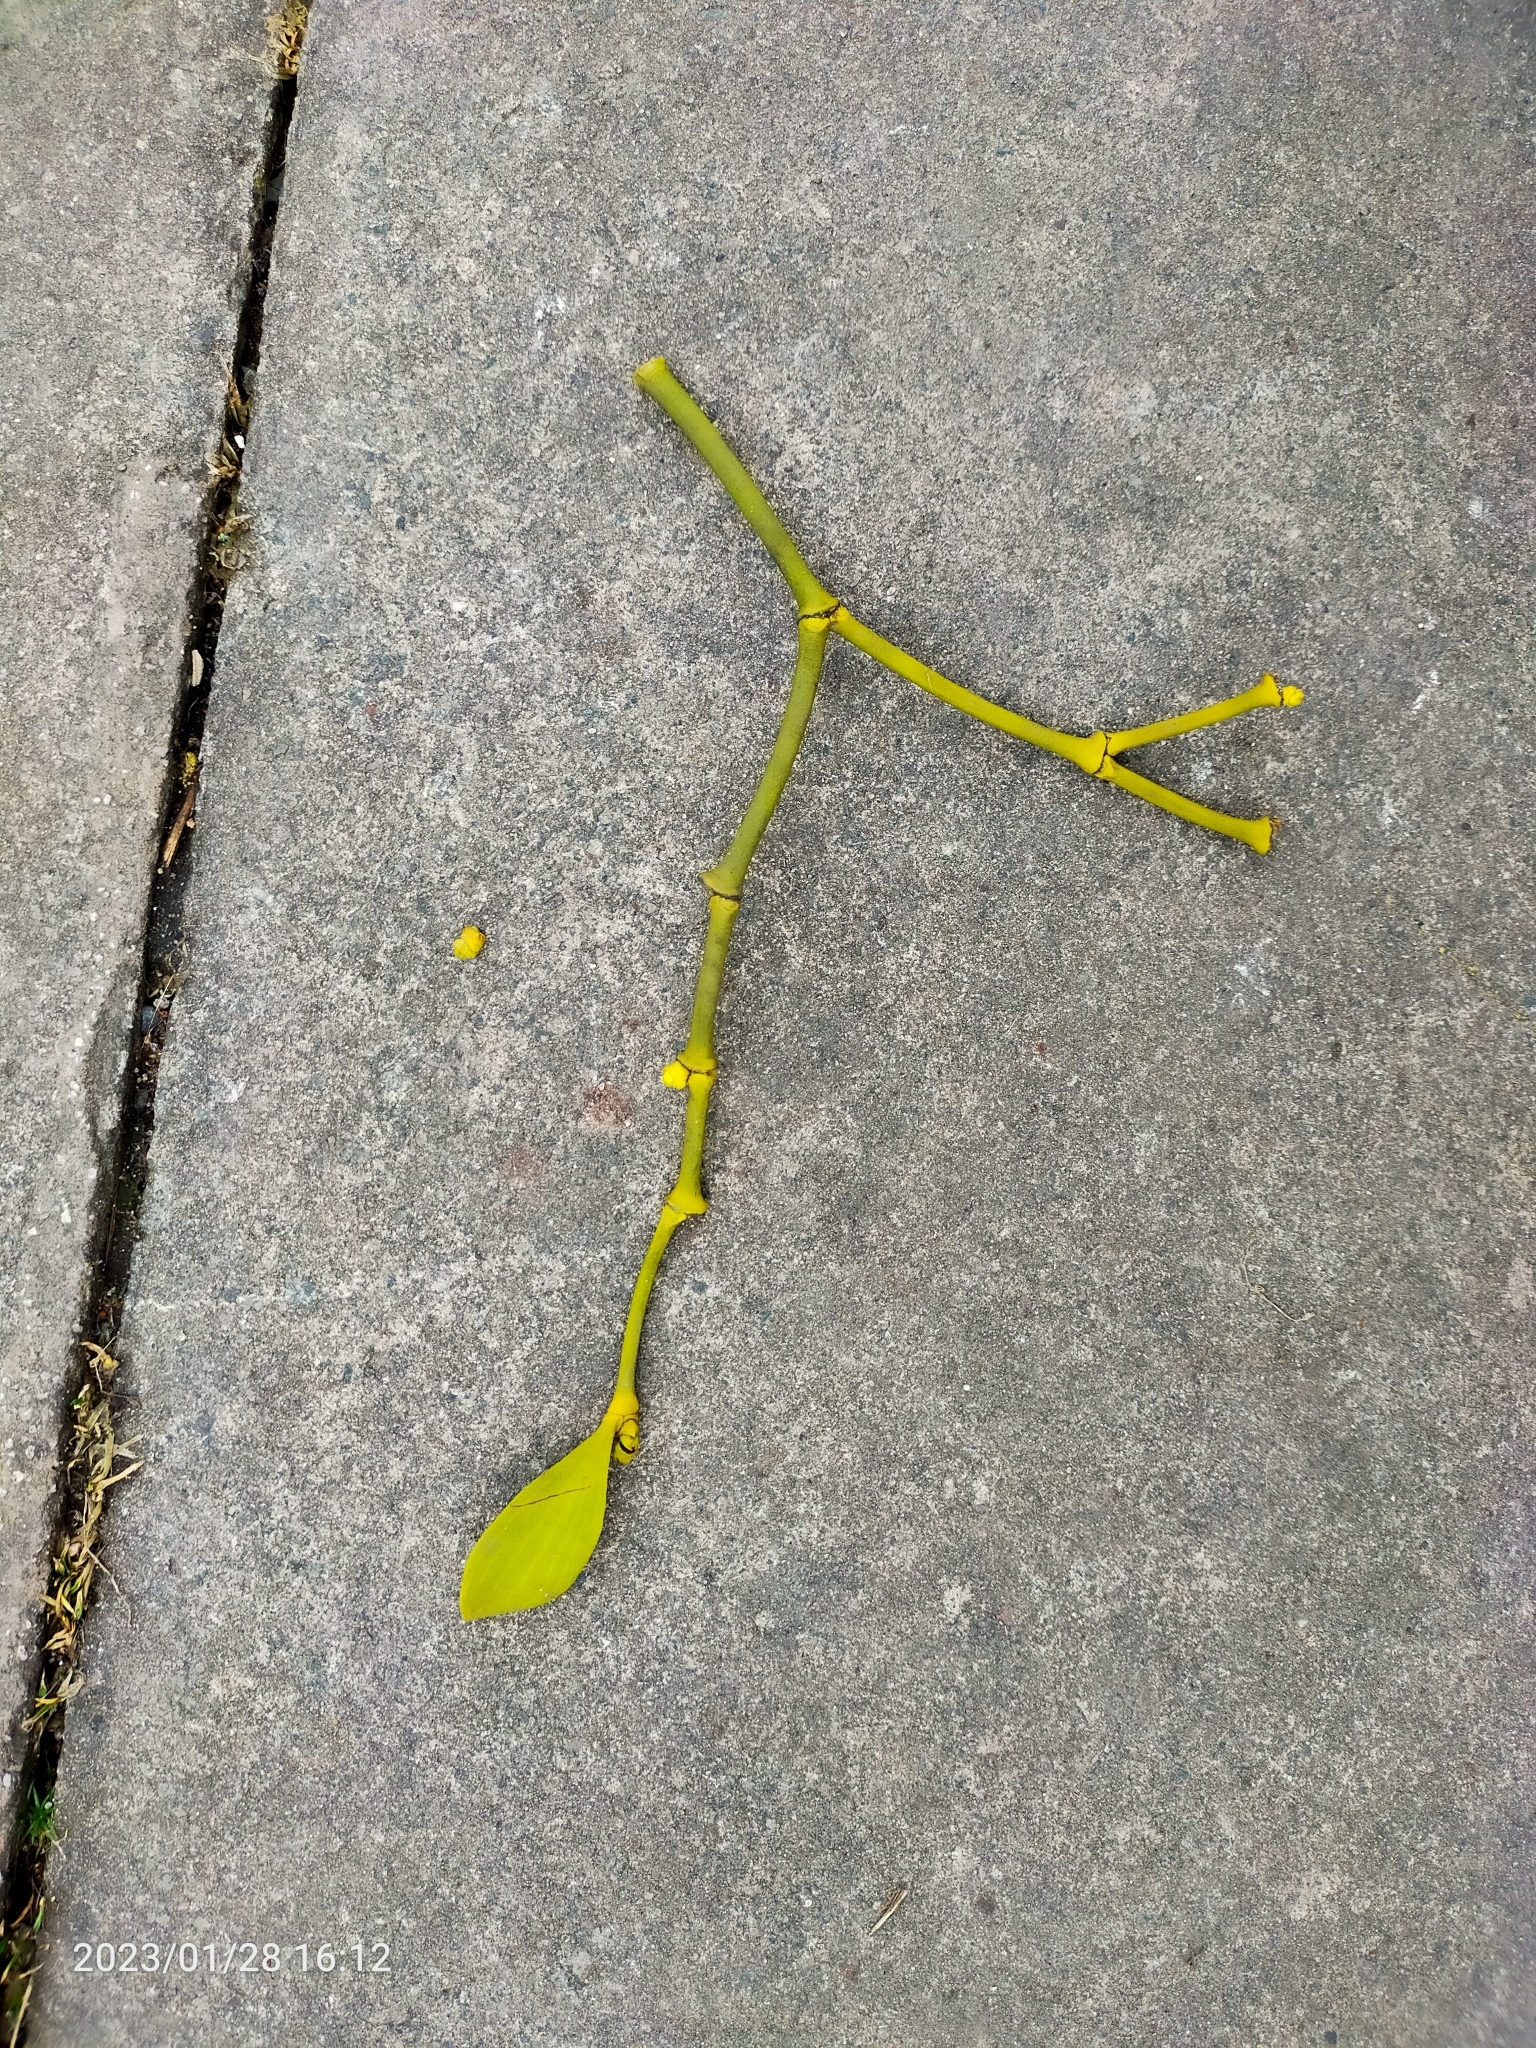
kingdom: Plantae
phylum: Tracheophyta
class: Magnoliopsida
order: Santalales
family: Viscaceae
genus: Viscum
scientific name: Viscum album
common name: Mistletoe
